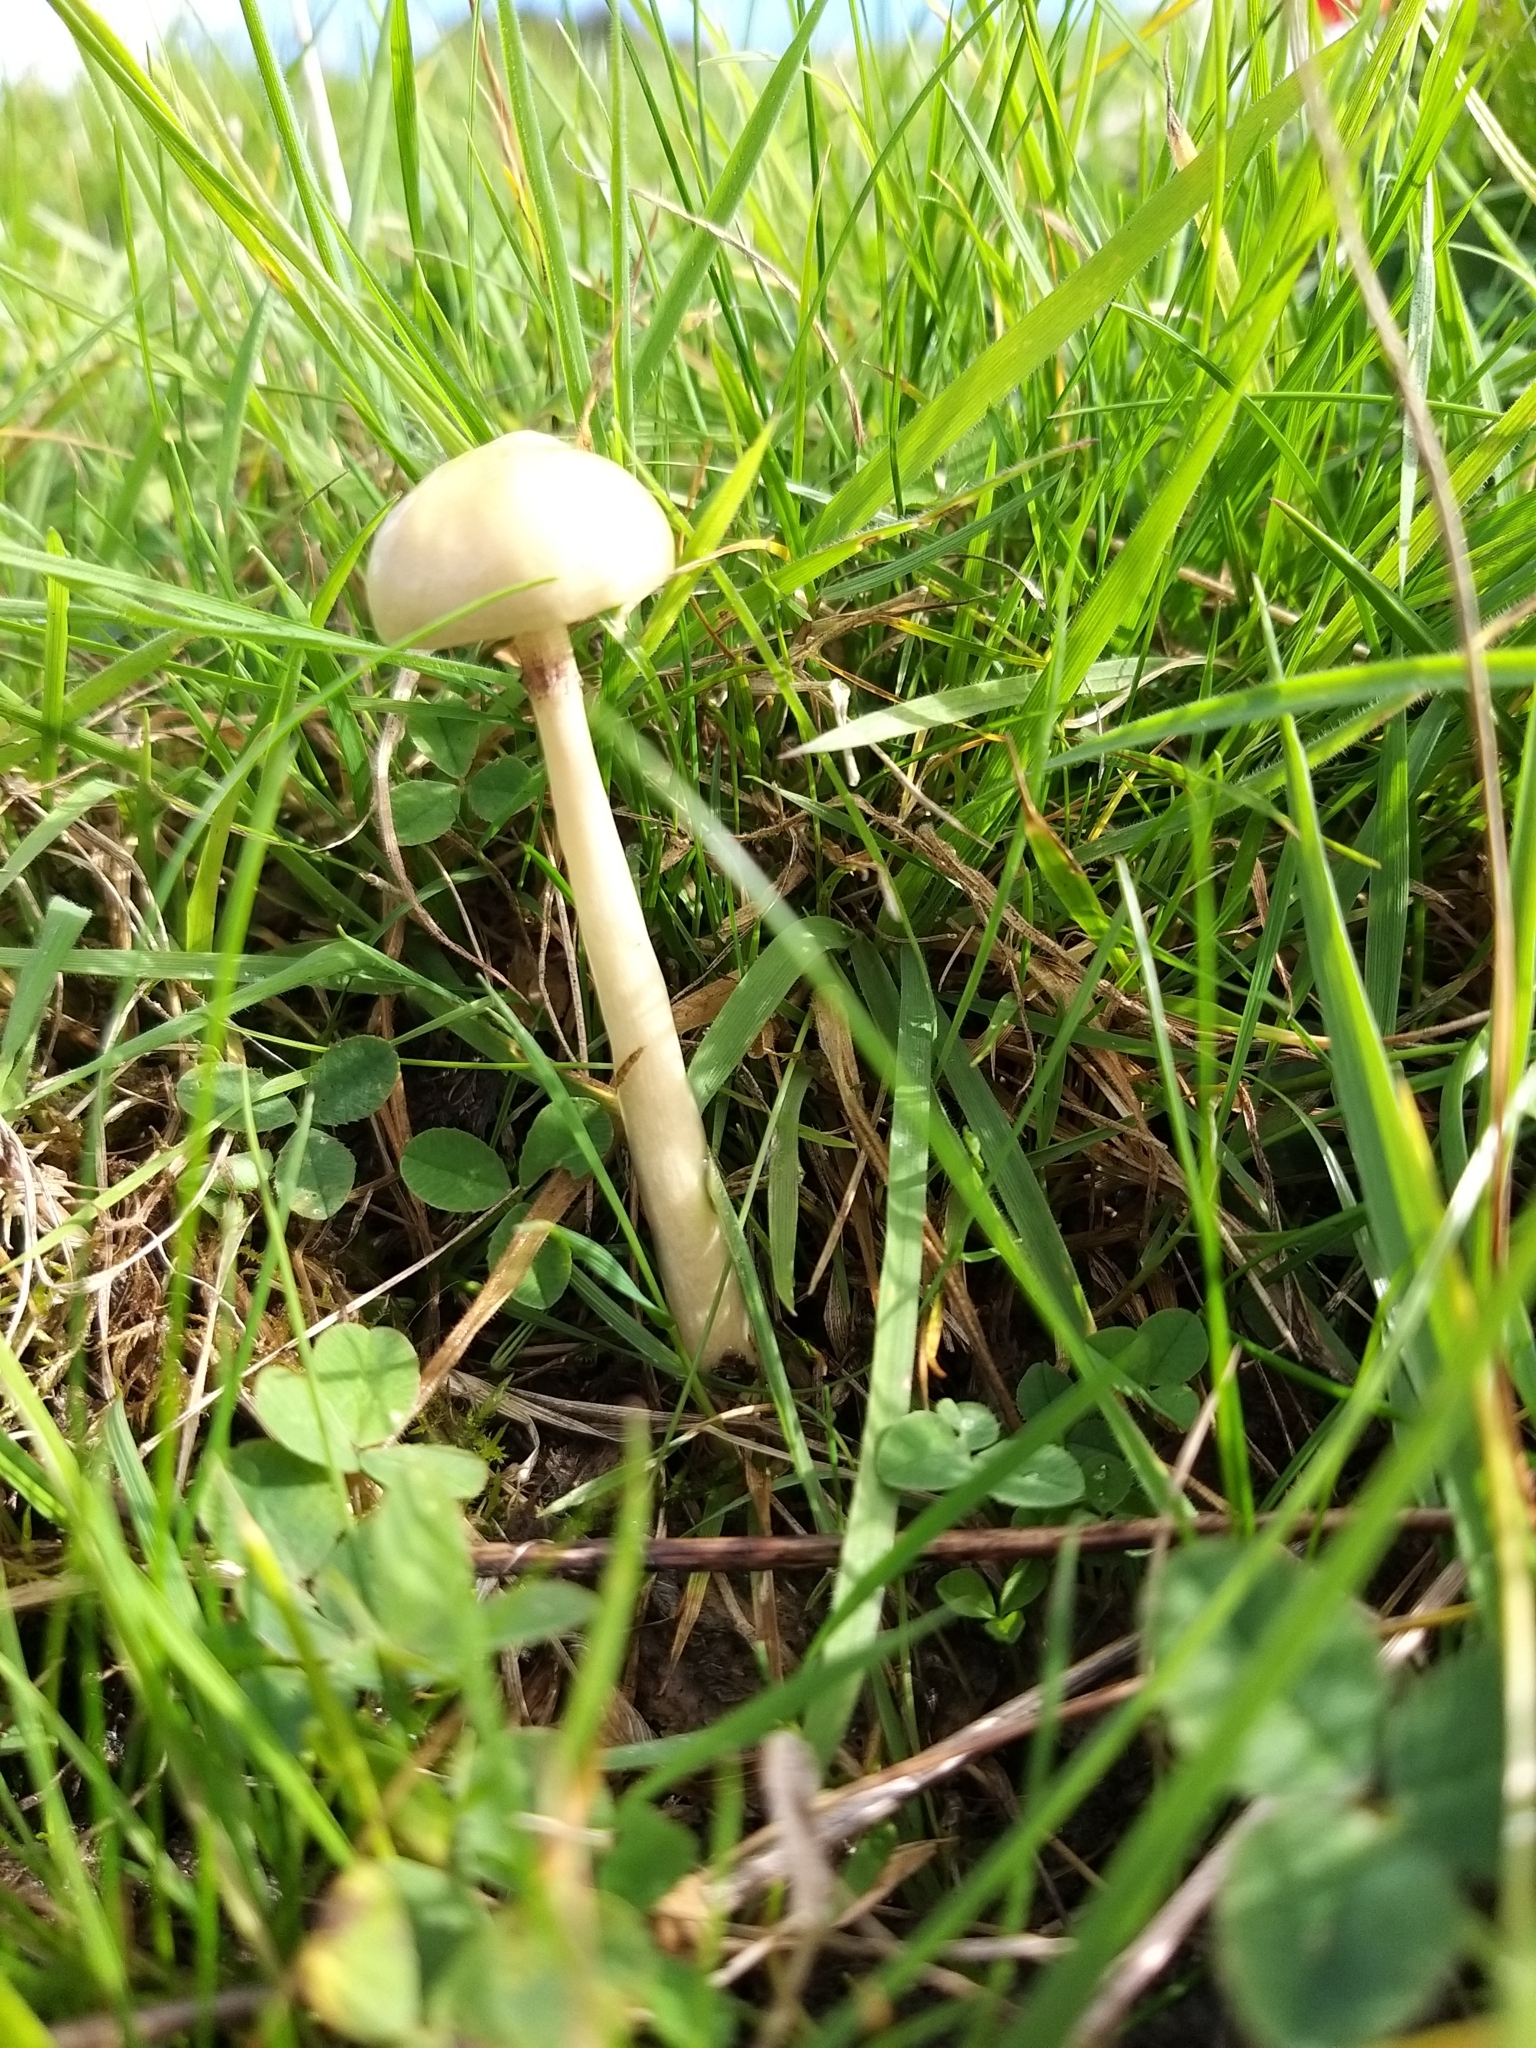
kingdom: Fungi
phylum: Basidiomycota
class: Agaricomycetes
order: Agaricales
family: Strophariaceae
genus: Protostropharia
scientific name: Protostropharia semiglobata
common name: Dung roundhead
